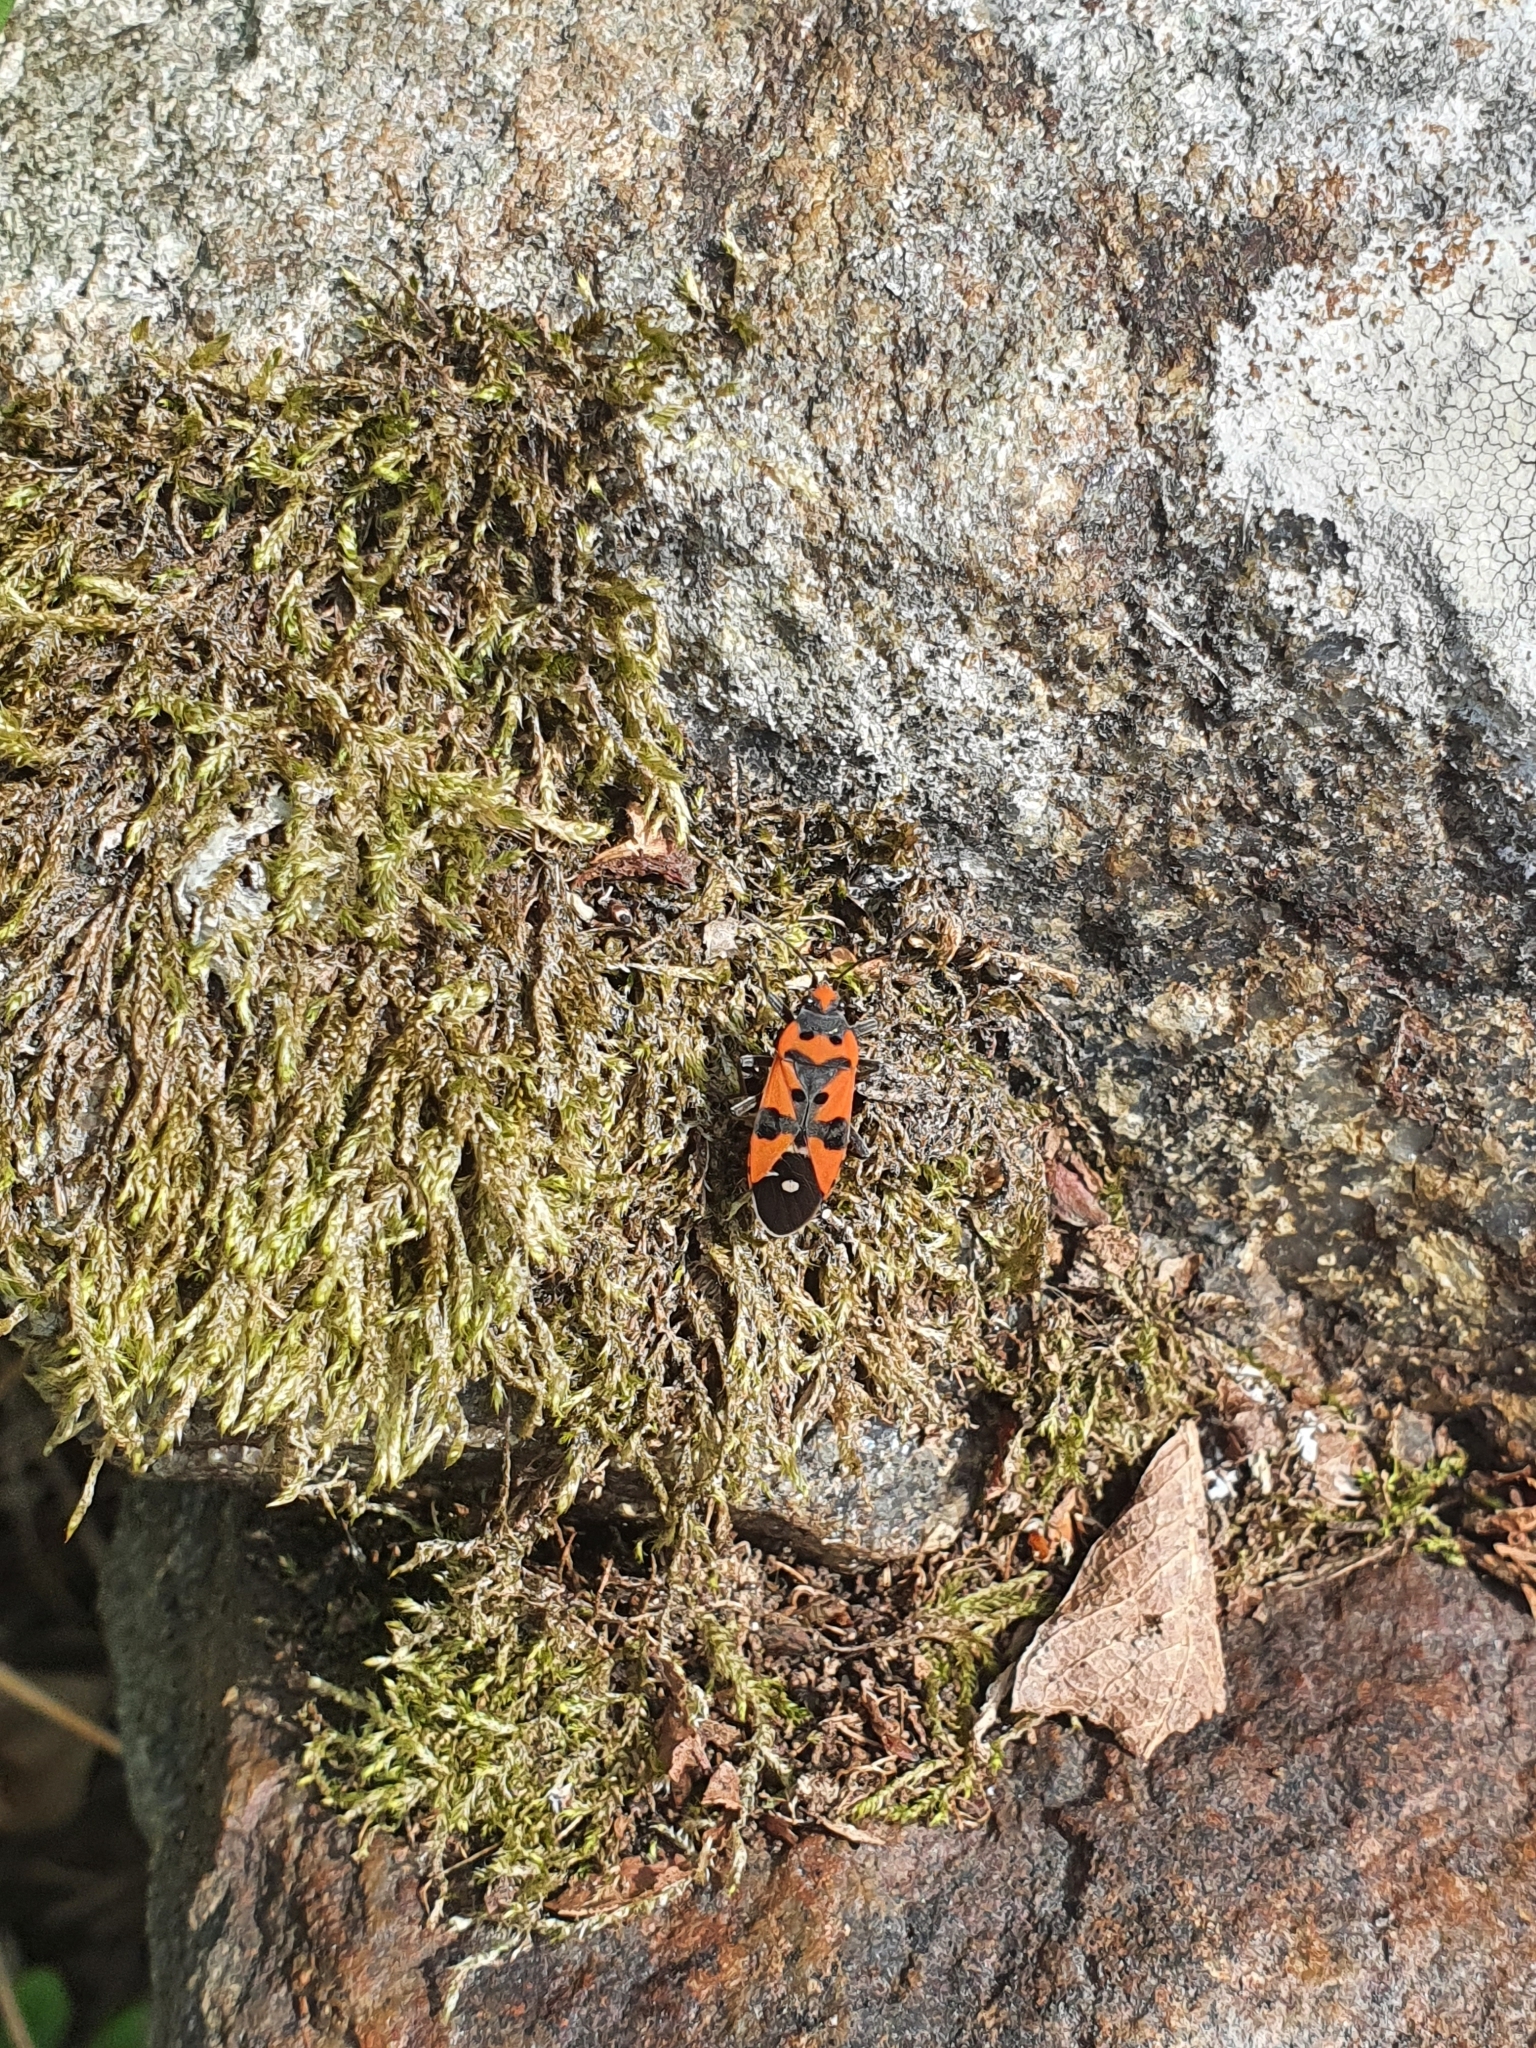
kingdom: Animalia
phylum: Arthropoda
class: Insecta
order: Hemiptera
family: Lygaeidae
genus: Lygaeus
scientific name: Lygaeus equestris
